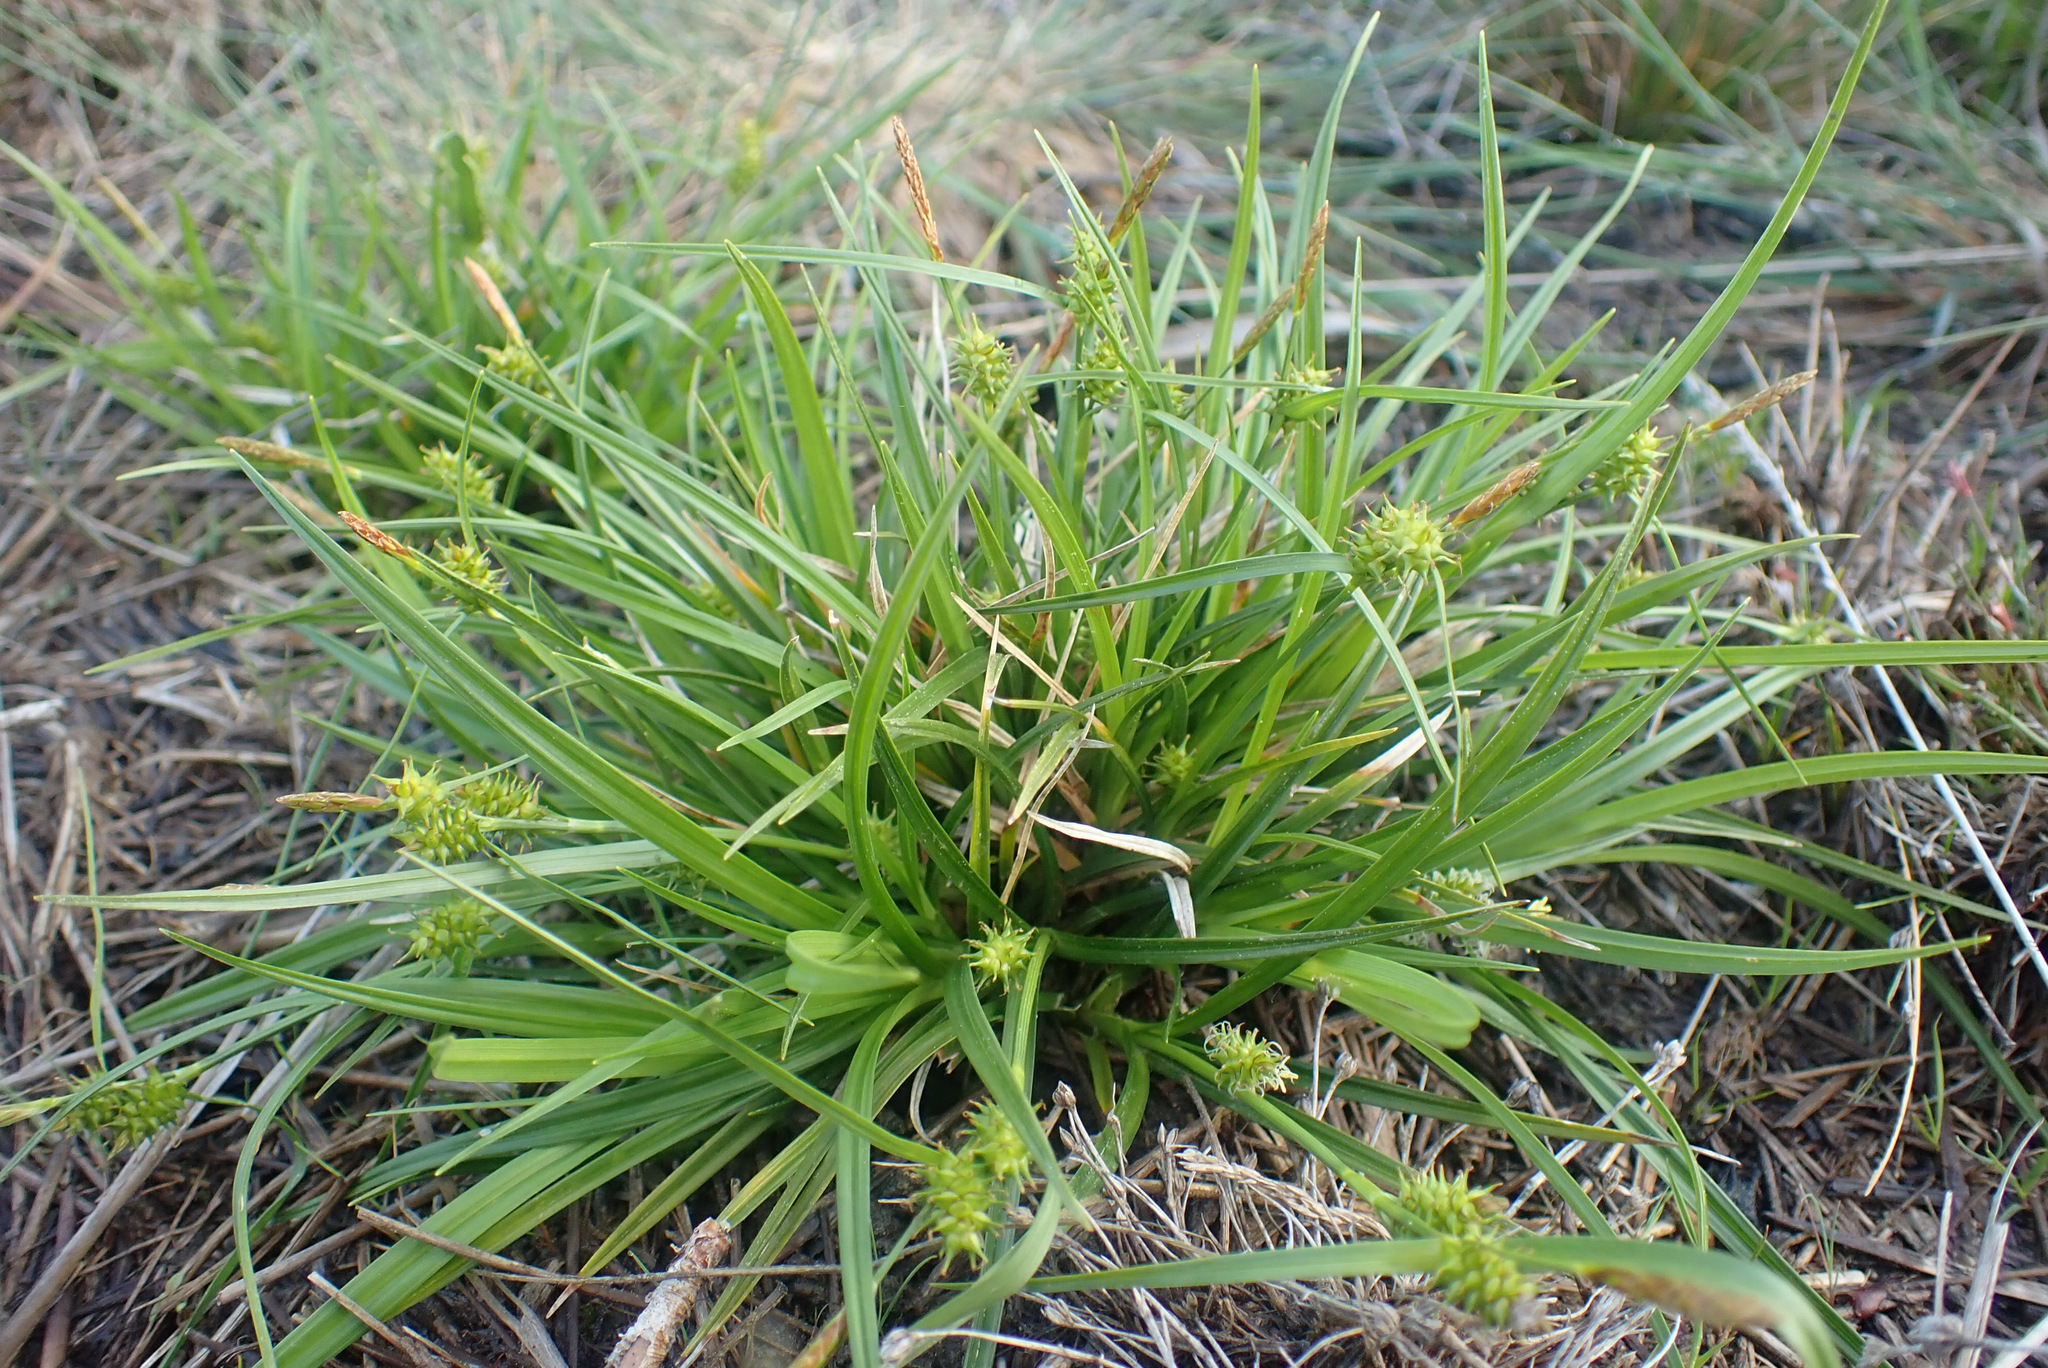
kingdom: Plantae
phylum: Tracheophyta
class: Liliopsida
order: Poales
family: Cyperaceae
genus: Carex
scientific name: Carex demissa
